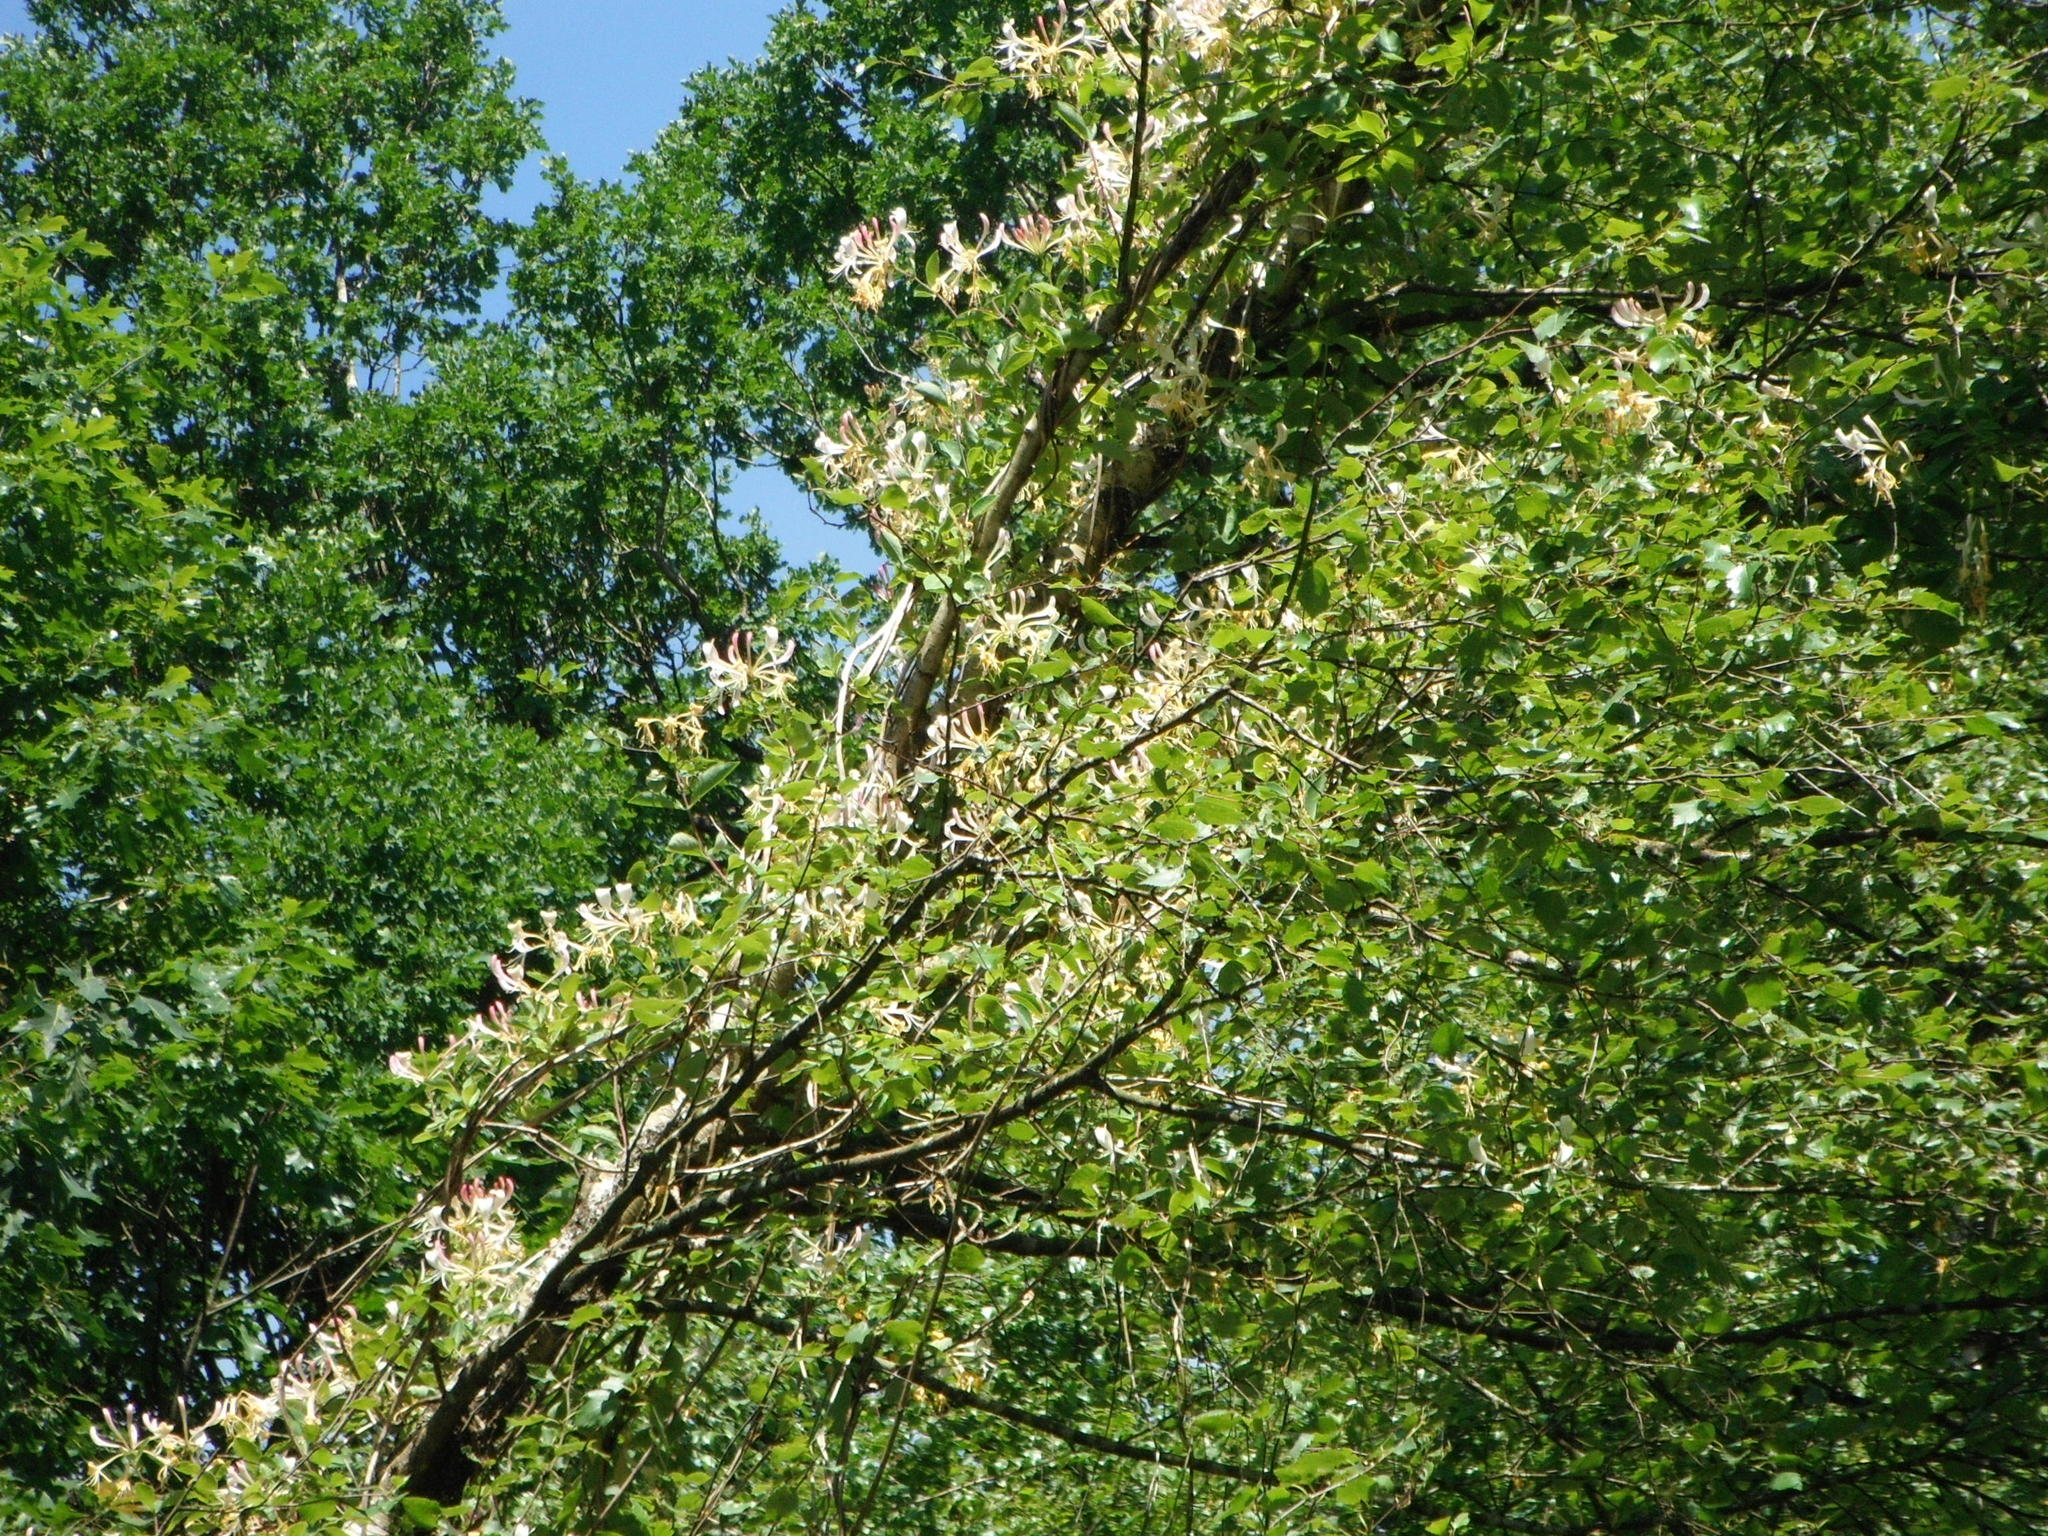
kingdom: Plantae
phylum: Tracheophyta
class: Magnoliopsida
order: Dipsacales
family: Caprifoliaceae
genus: Lonicera
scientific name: Lonicera periclymenum
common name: European honeysuckle
